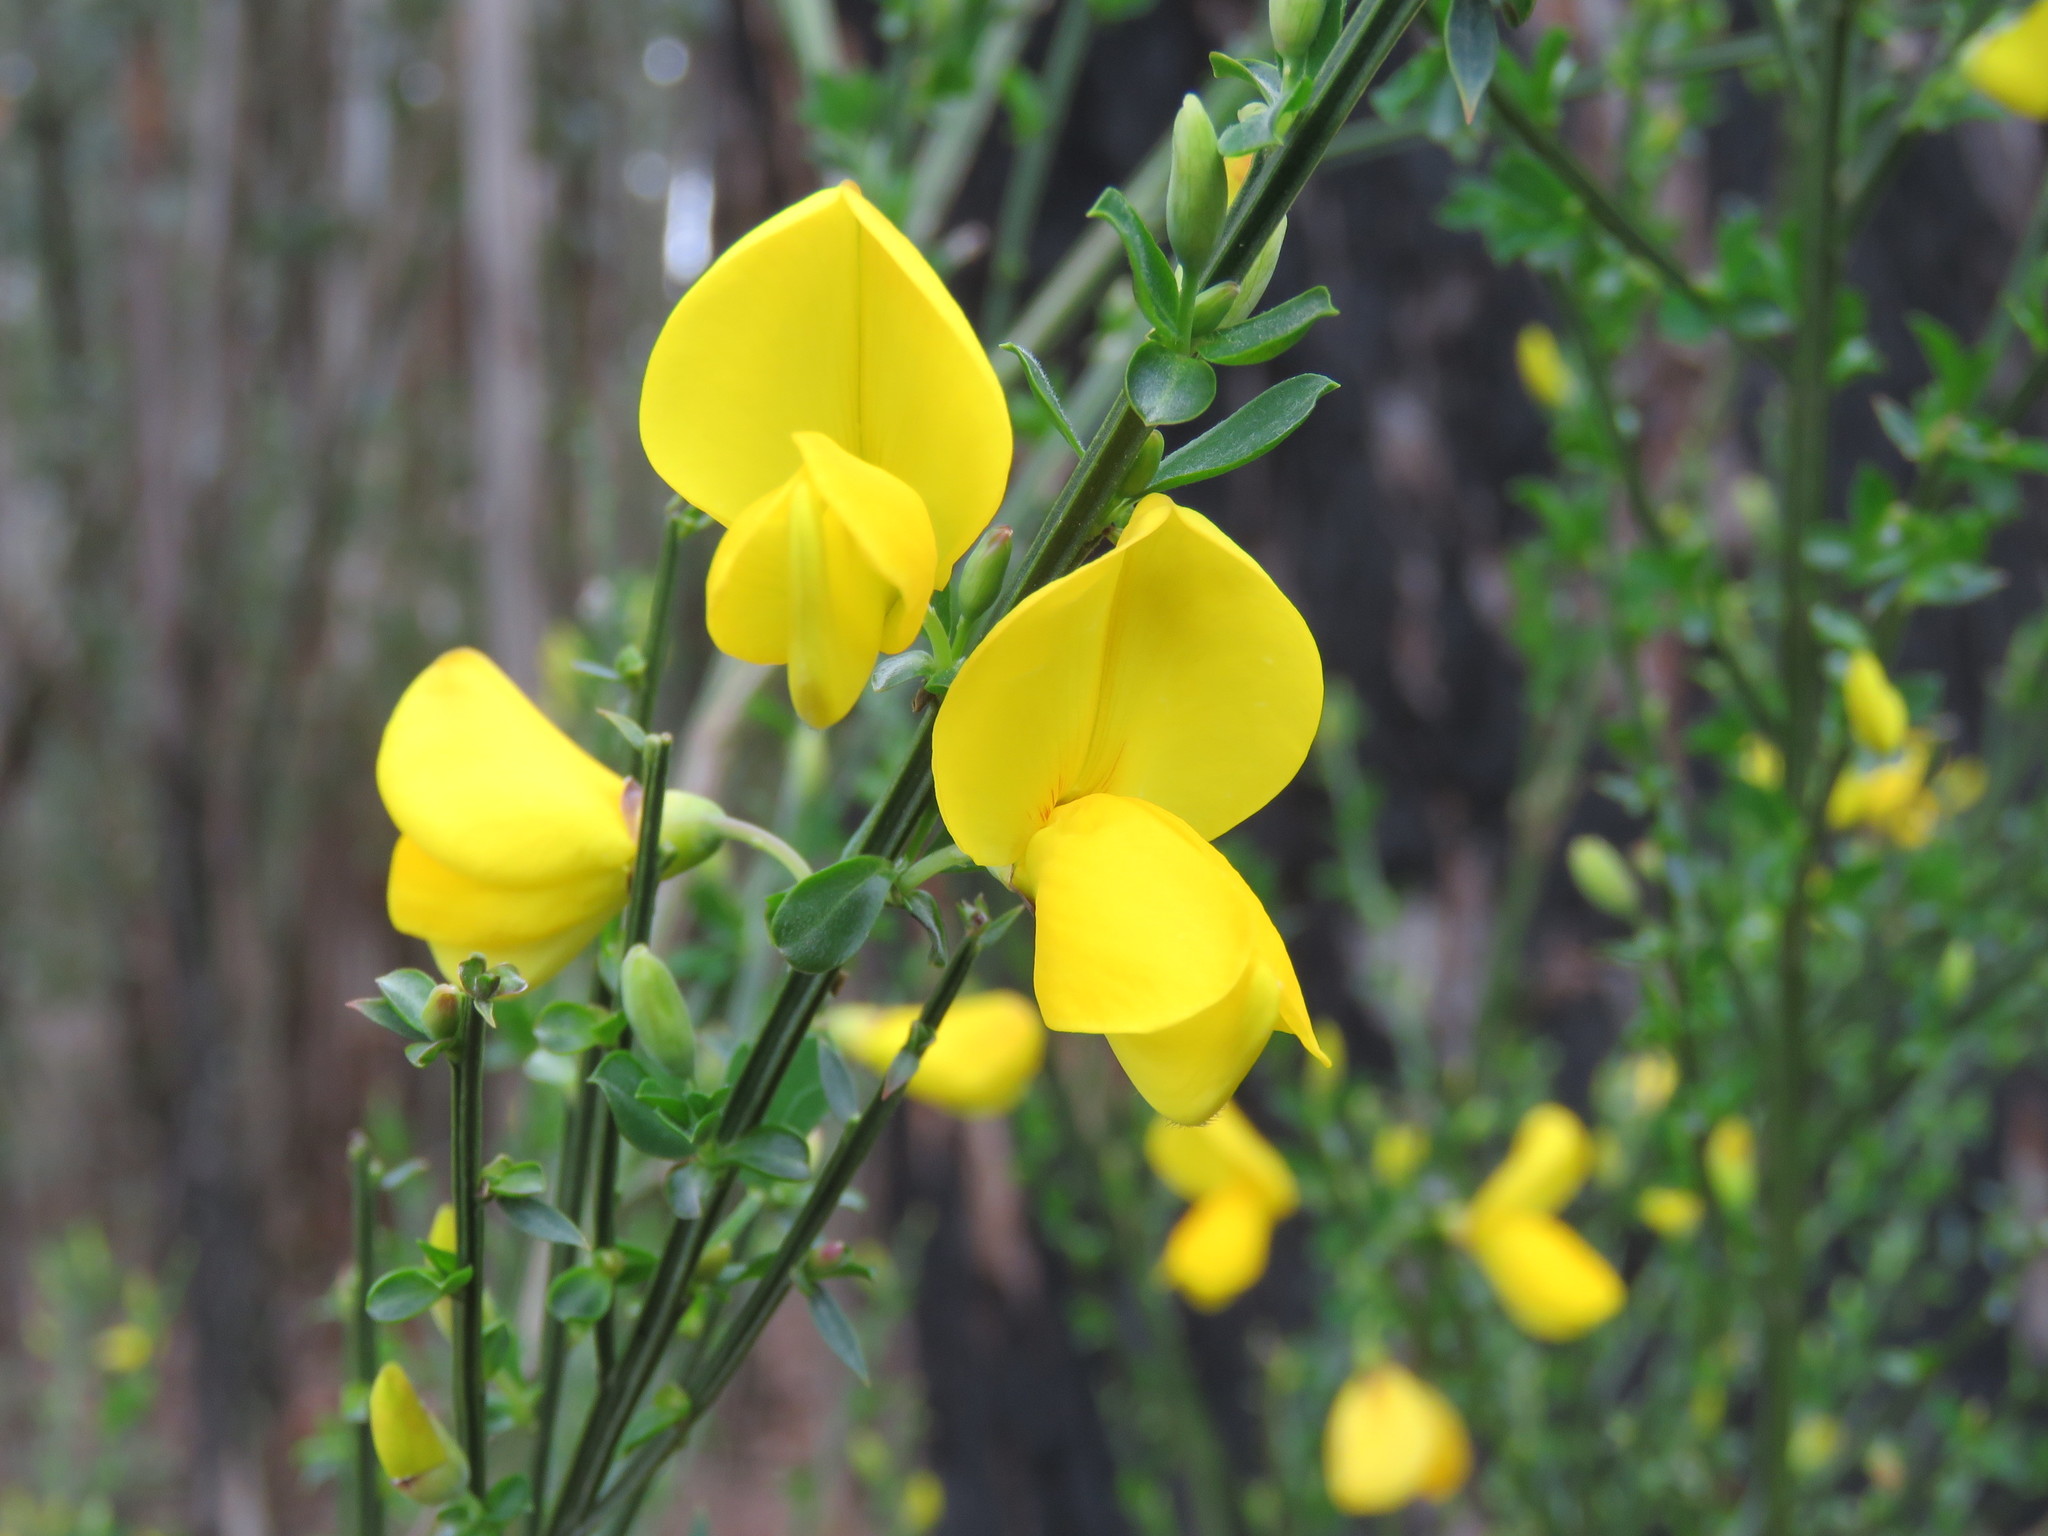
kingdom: Plantae
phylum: Tracheophyta
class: Magnoliopsida
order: Fabales
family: Fabaceae
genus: Cytisus
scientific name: Cytisus scoparius
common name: Scotch broom
